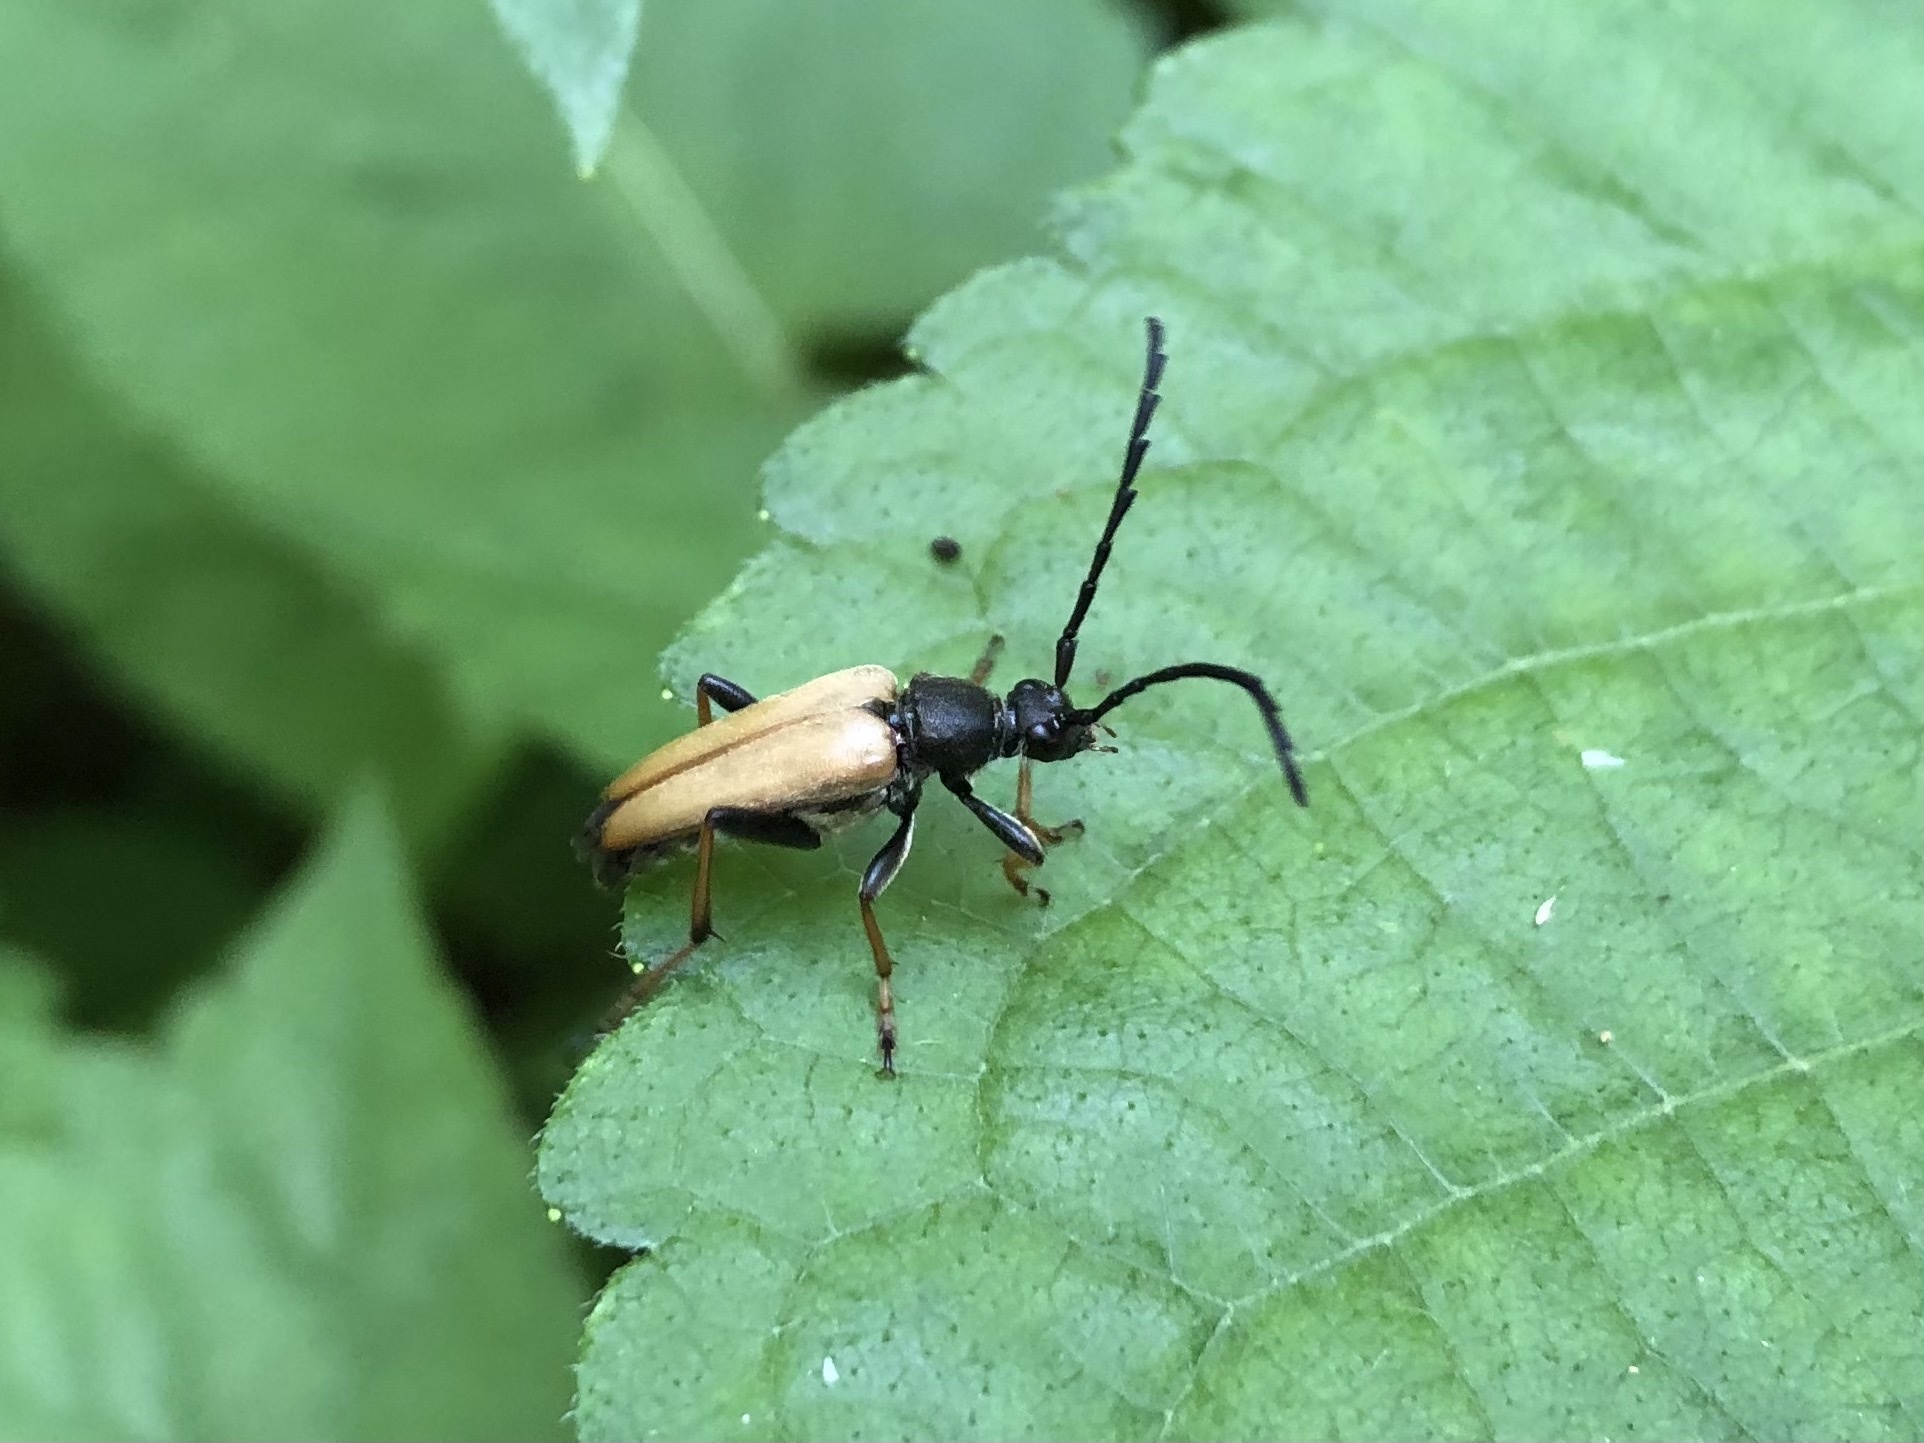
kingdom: Animalia
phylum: Arthropoda
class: Insecta
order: Coleoptera
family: Cerambycidae
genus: Stictoleptura
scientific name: Stictoleptura rubra
